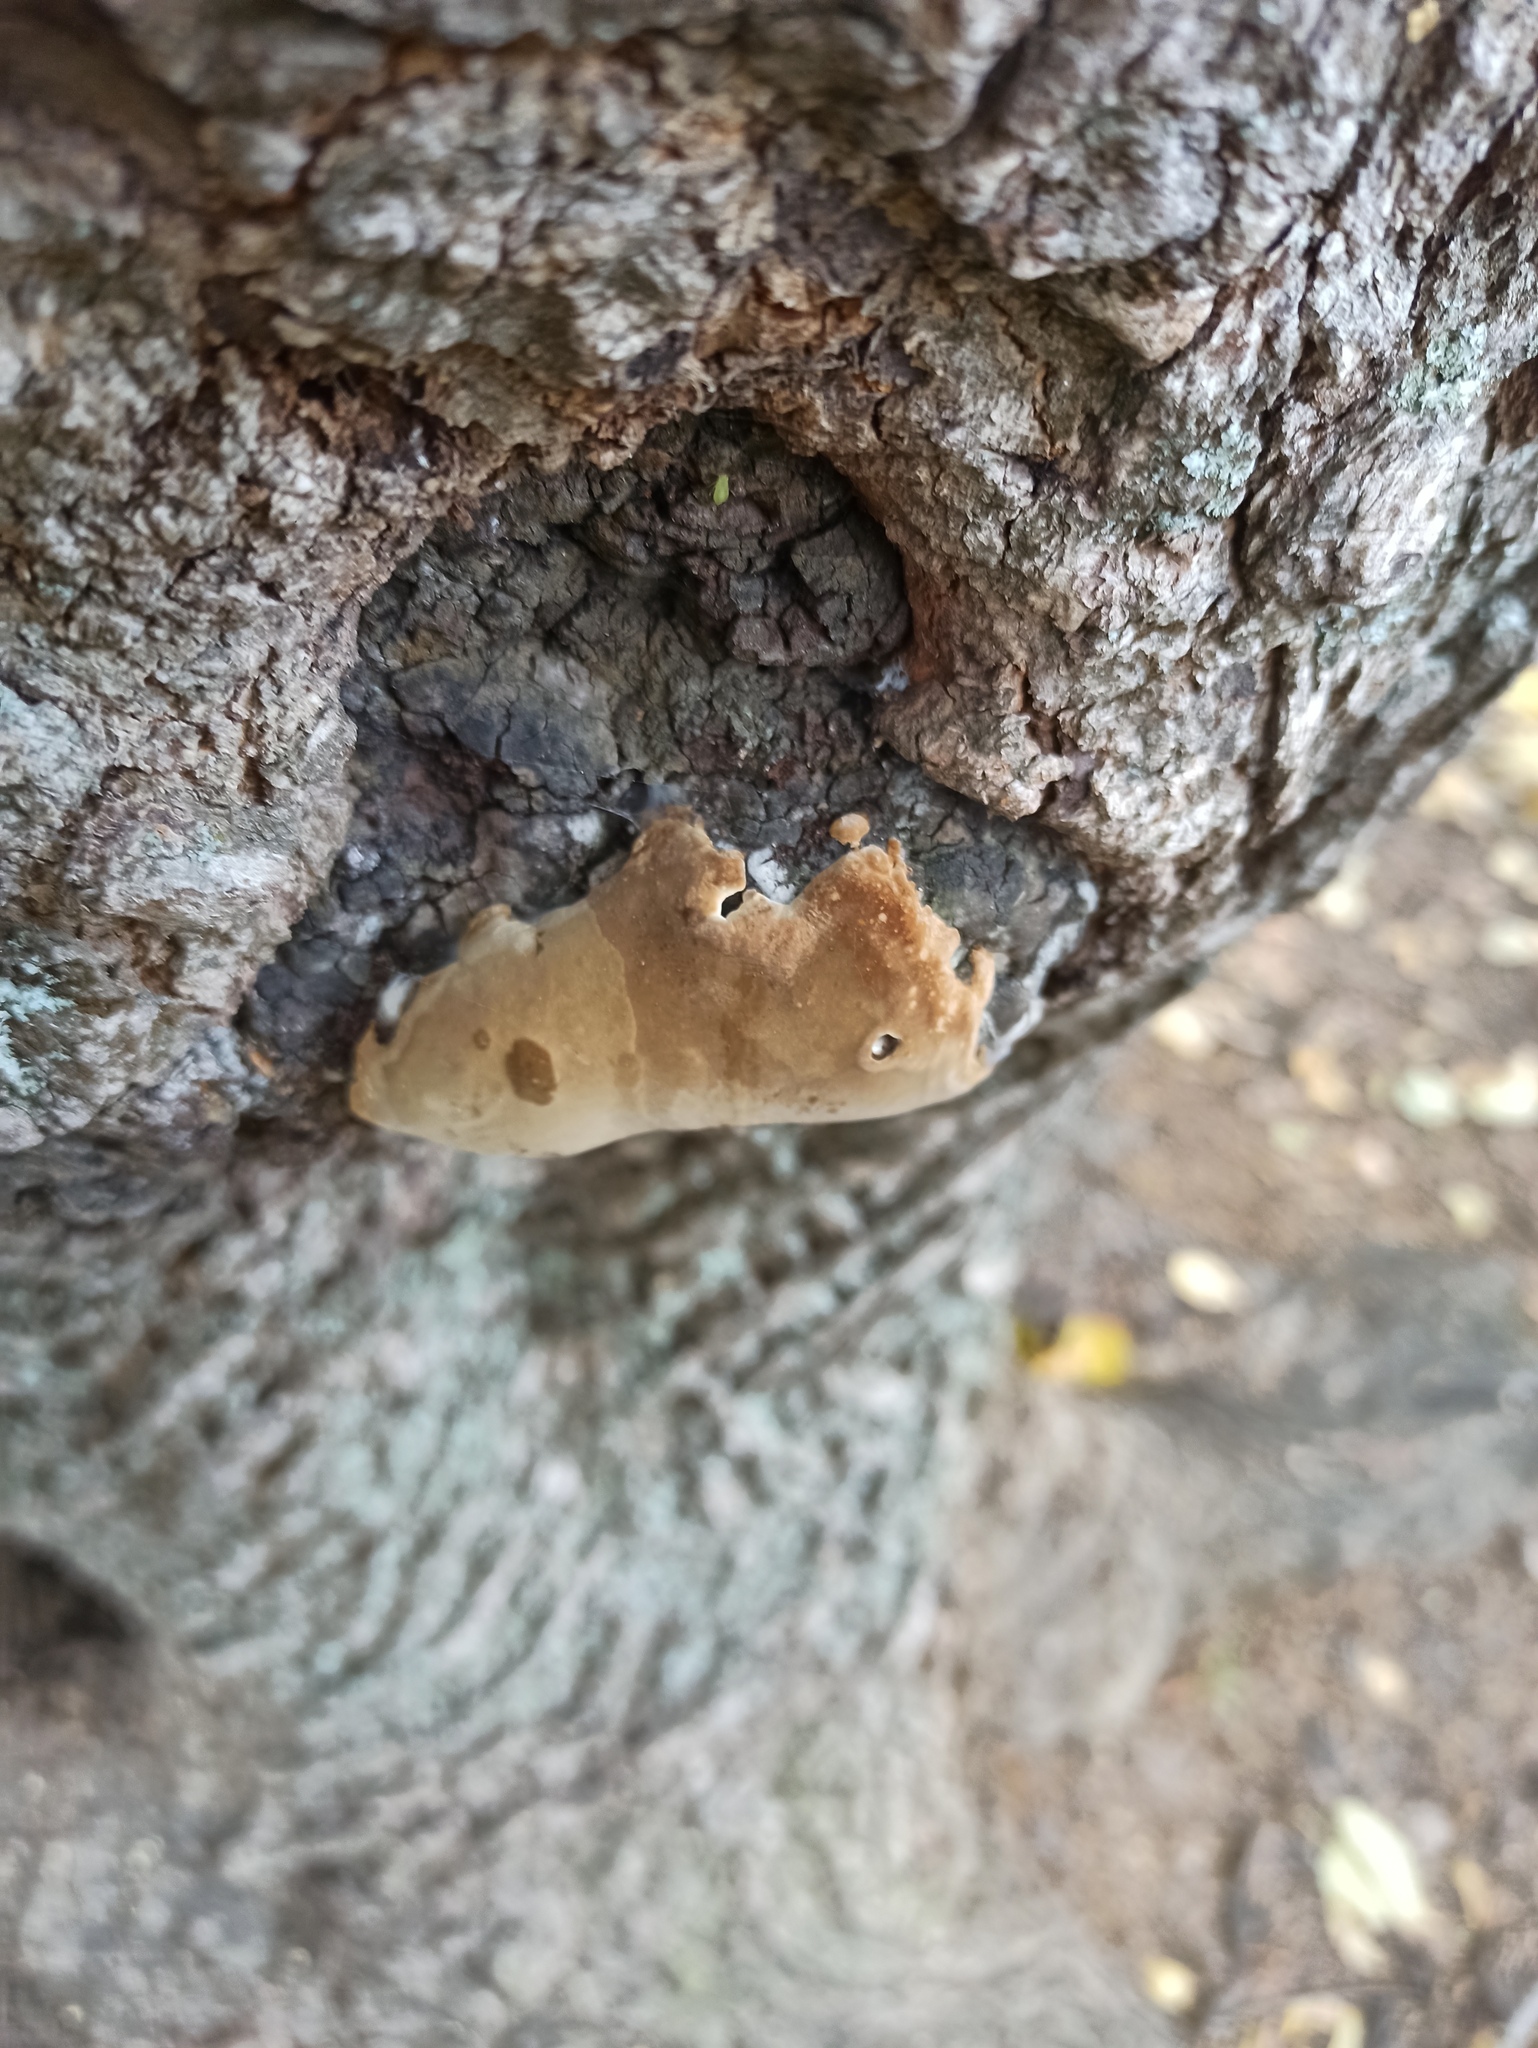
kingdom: Fungi
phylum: Basidiomycota
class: Agaricomycetes
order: Hymenochaetales
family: Hymenochaetaceae
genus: Fomitiporia
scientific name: Fomitiporia robusta
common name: Robust bracket
